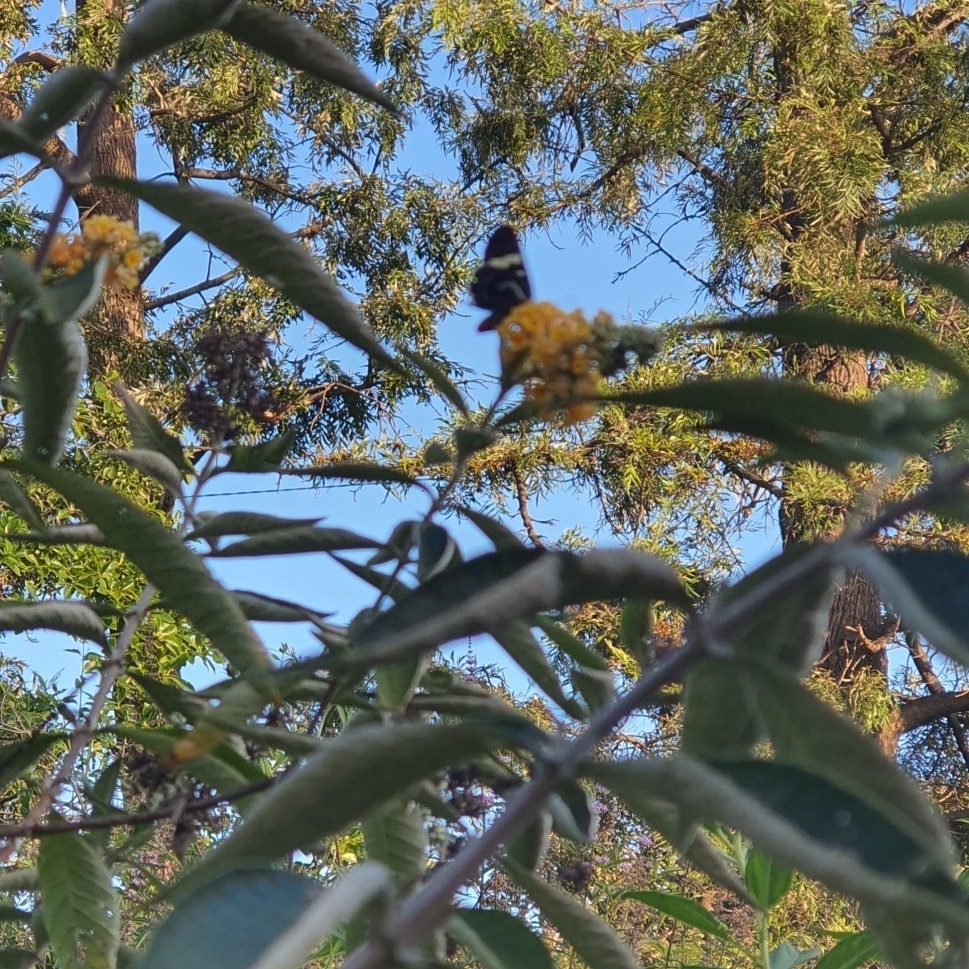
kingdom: Animalia
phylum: Arthropoda
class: Insecta
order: Lepidoptera
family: Noctuidae
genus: Phalaenoides
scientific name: Phalaenoides glycinae
